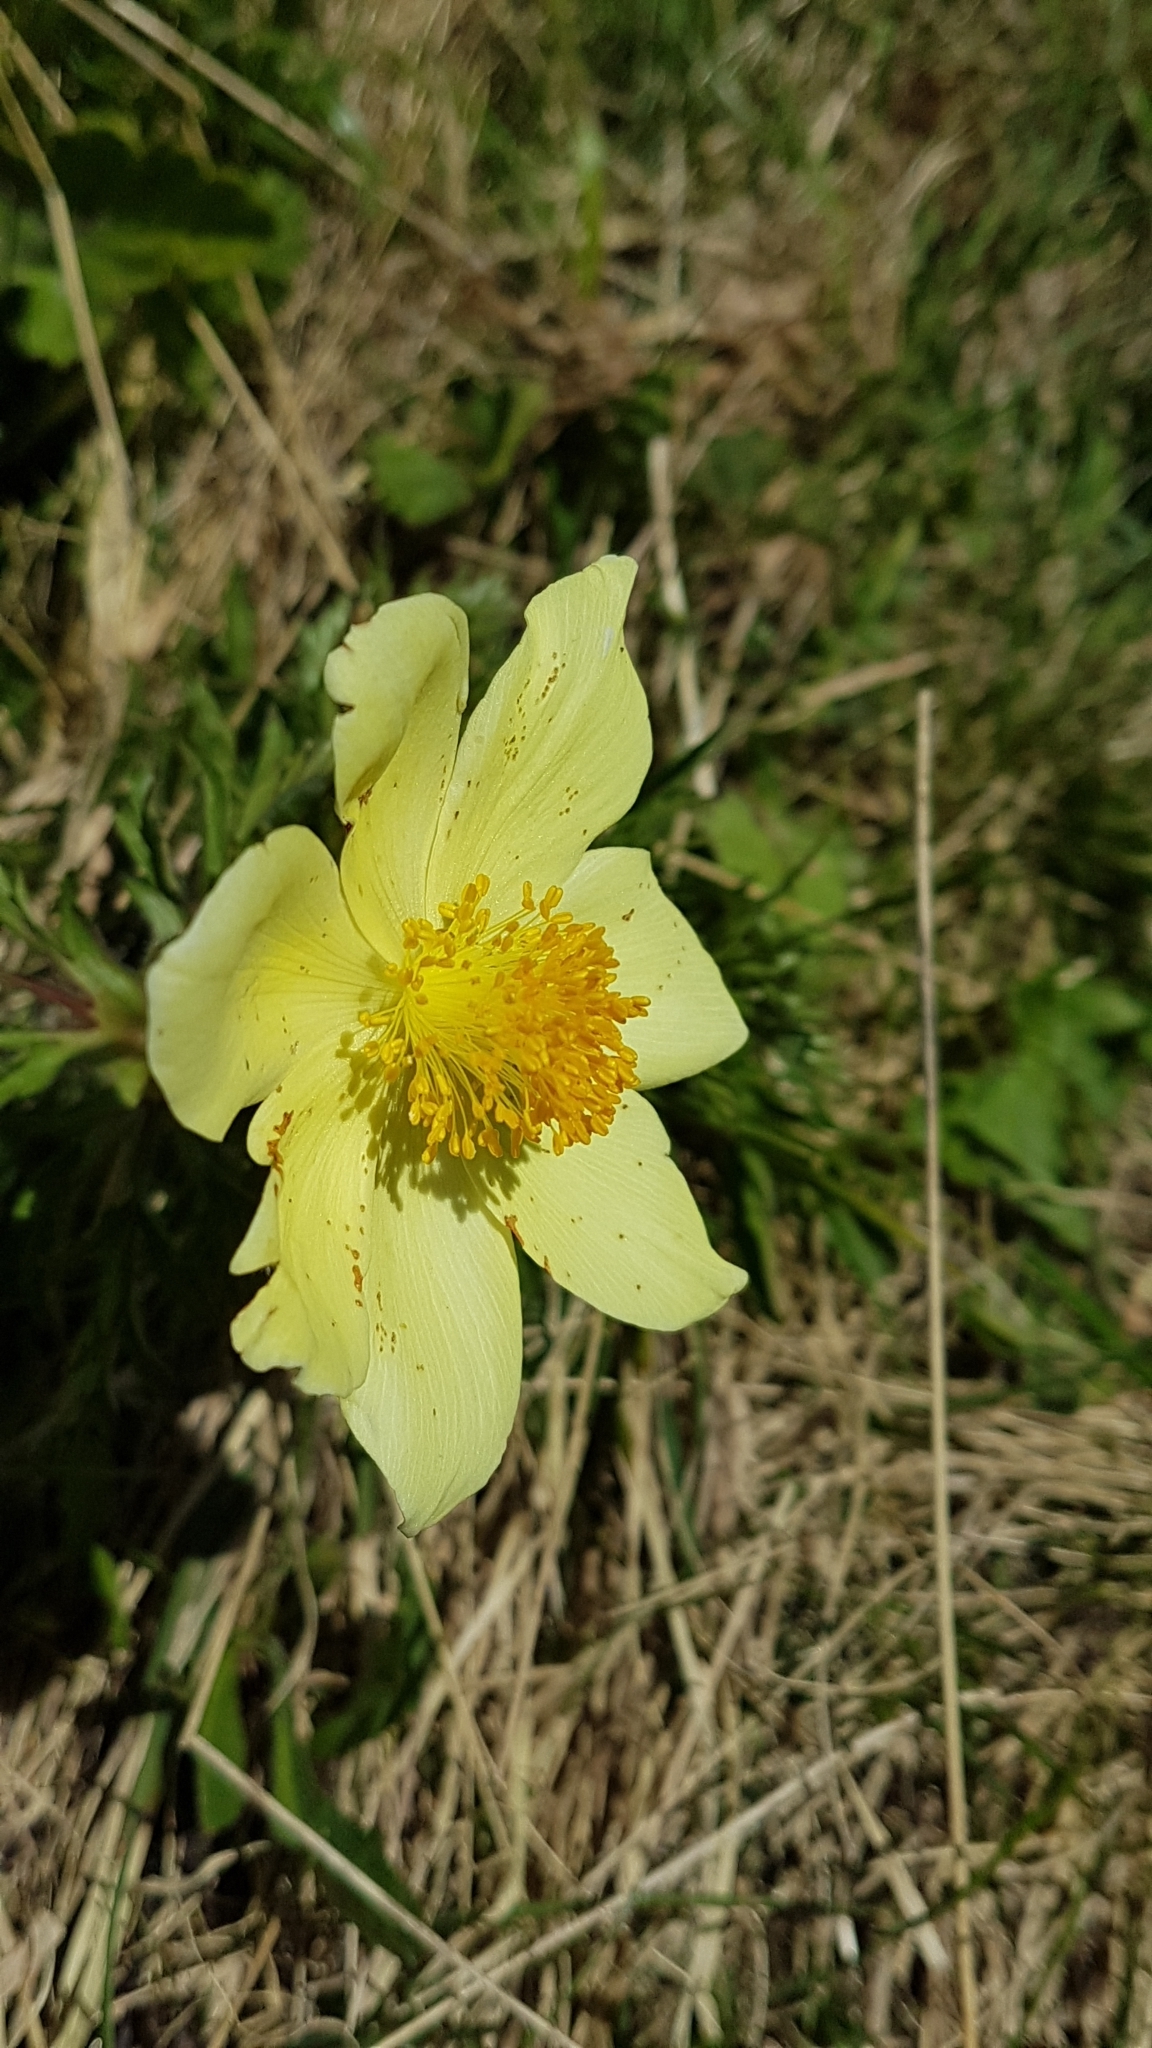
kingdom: Plantae
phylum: Tracheophyta
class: Magnoliopsida
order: Ranunculales
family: Ranunculaceae
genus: Pulsatilla
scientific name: Pulsatilla alpina
